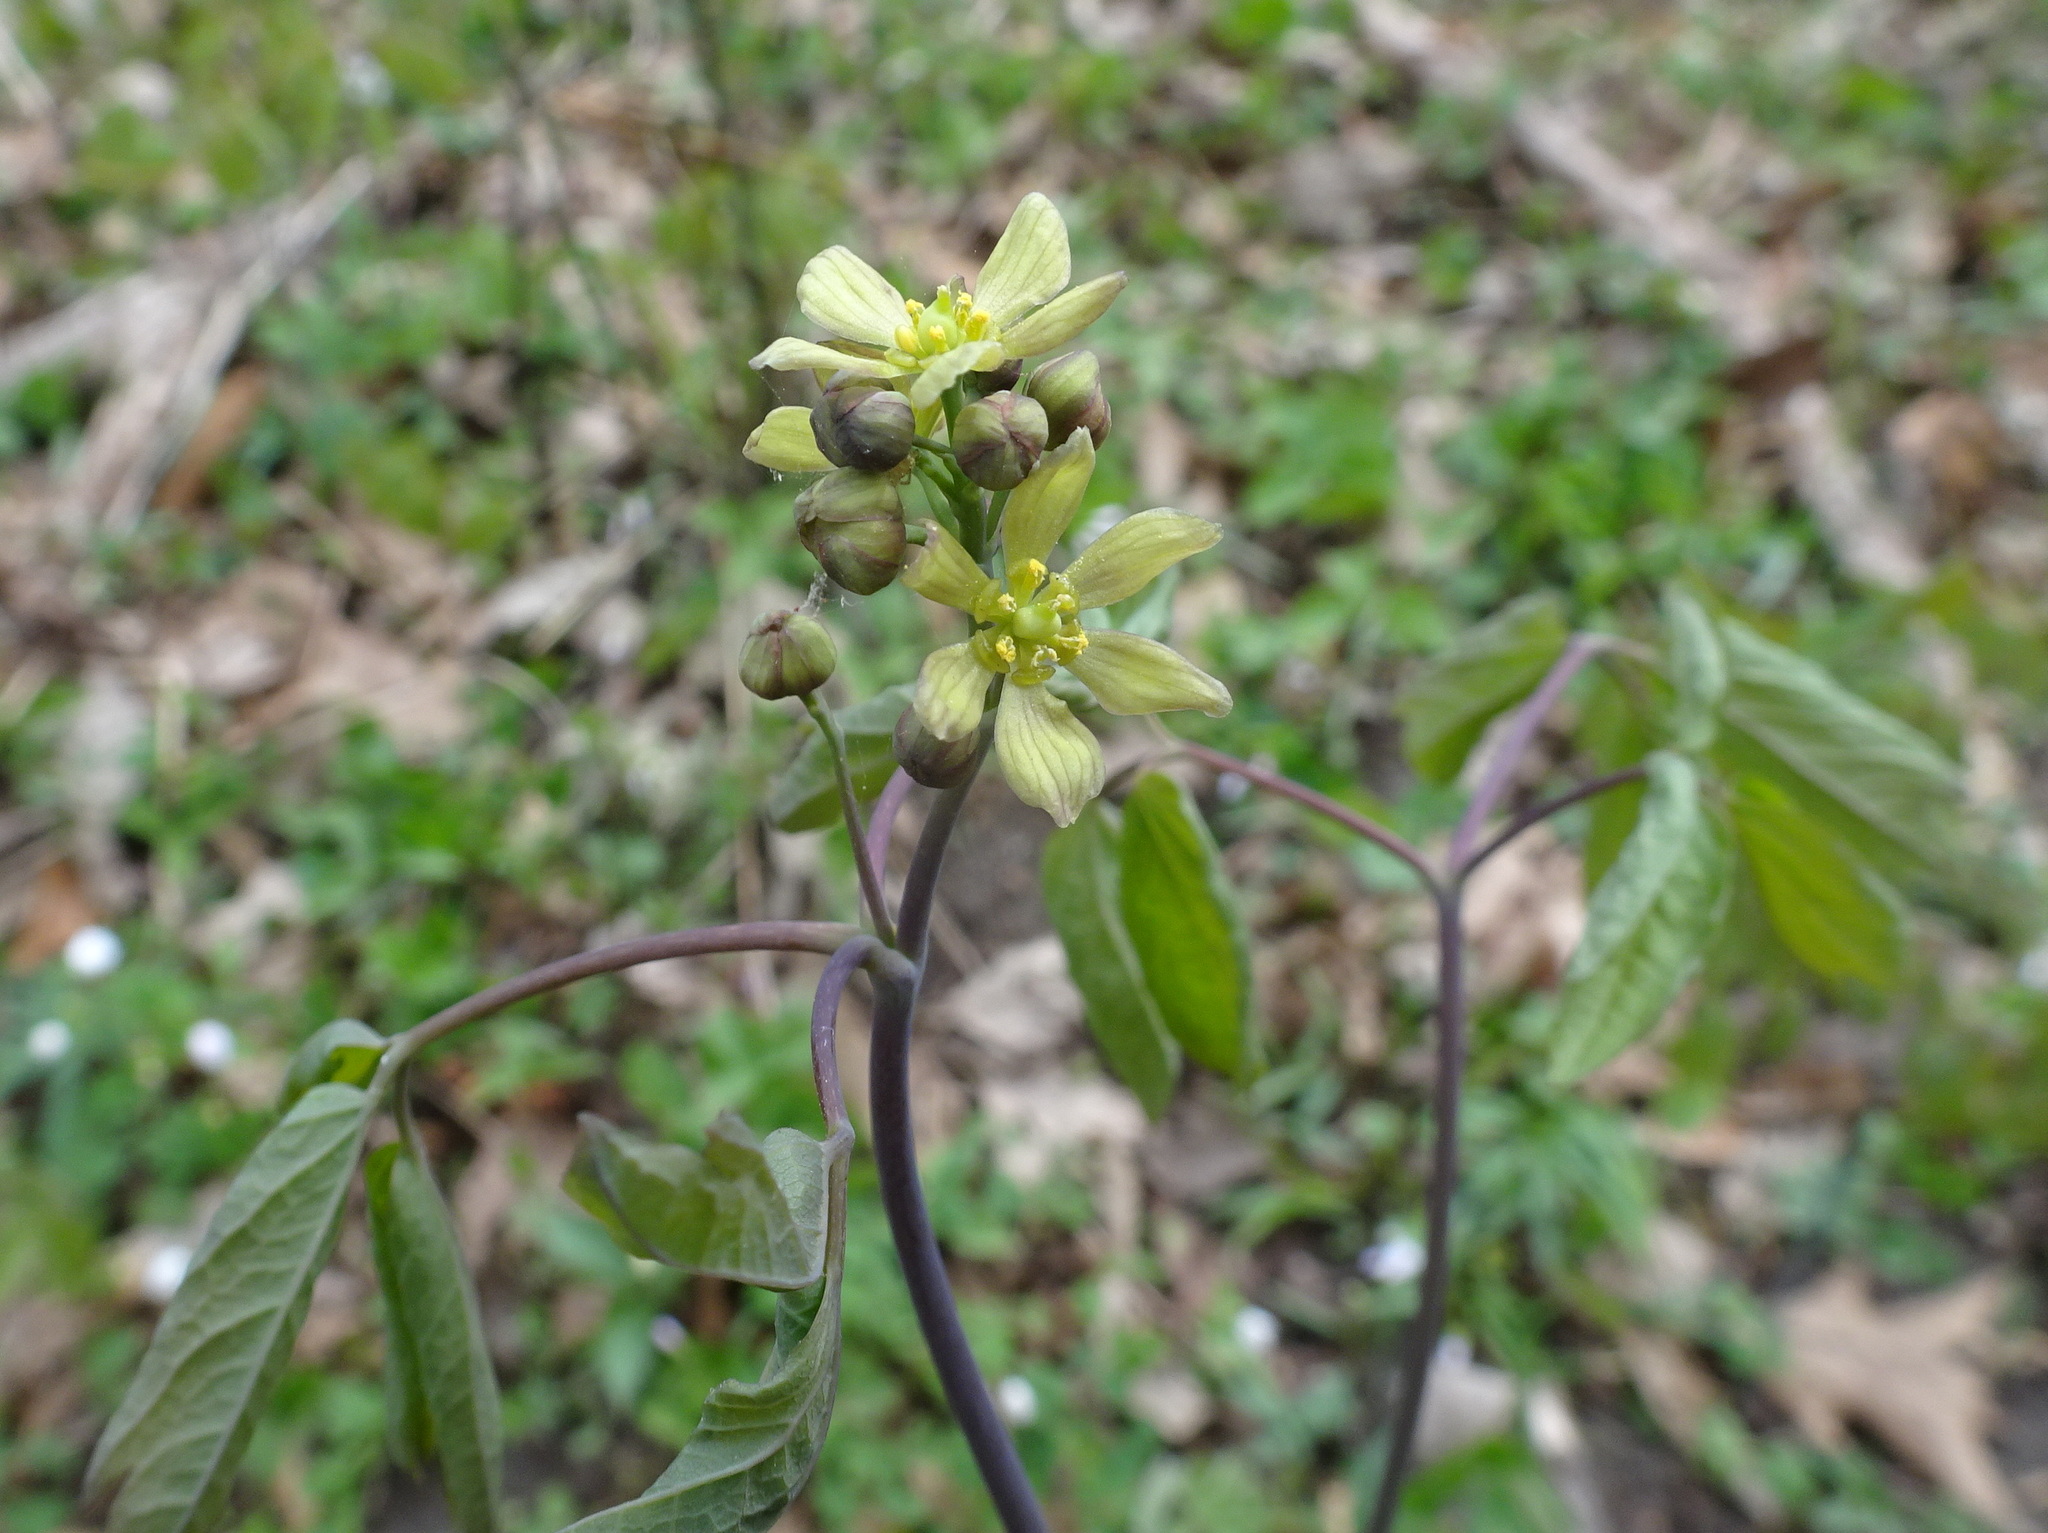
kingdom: Plantae
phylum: Tracheophyta
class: Magnoliopsida
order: Ranunculales
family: Berberidaceae
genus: Caulophyllum
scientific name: Caulophyllum thalictroides
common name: Blue cohosh
